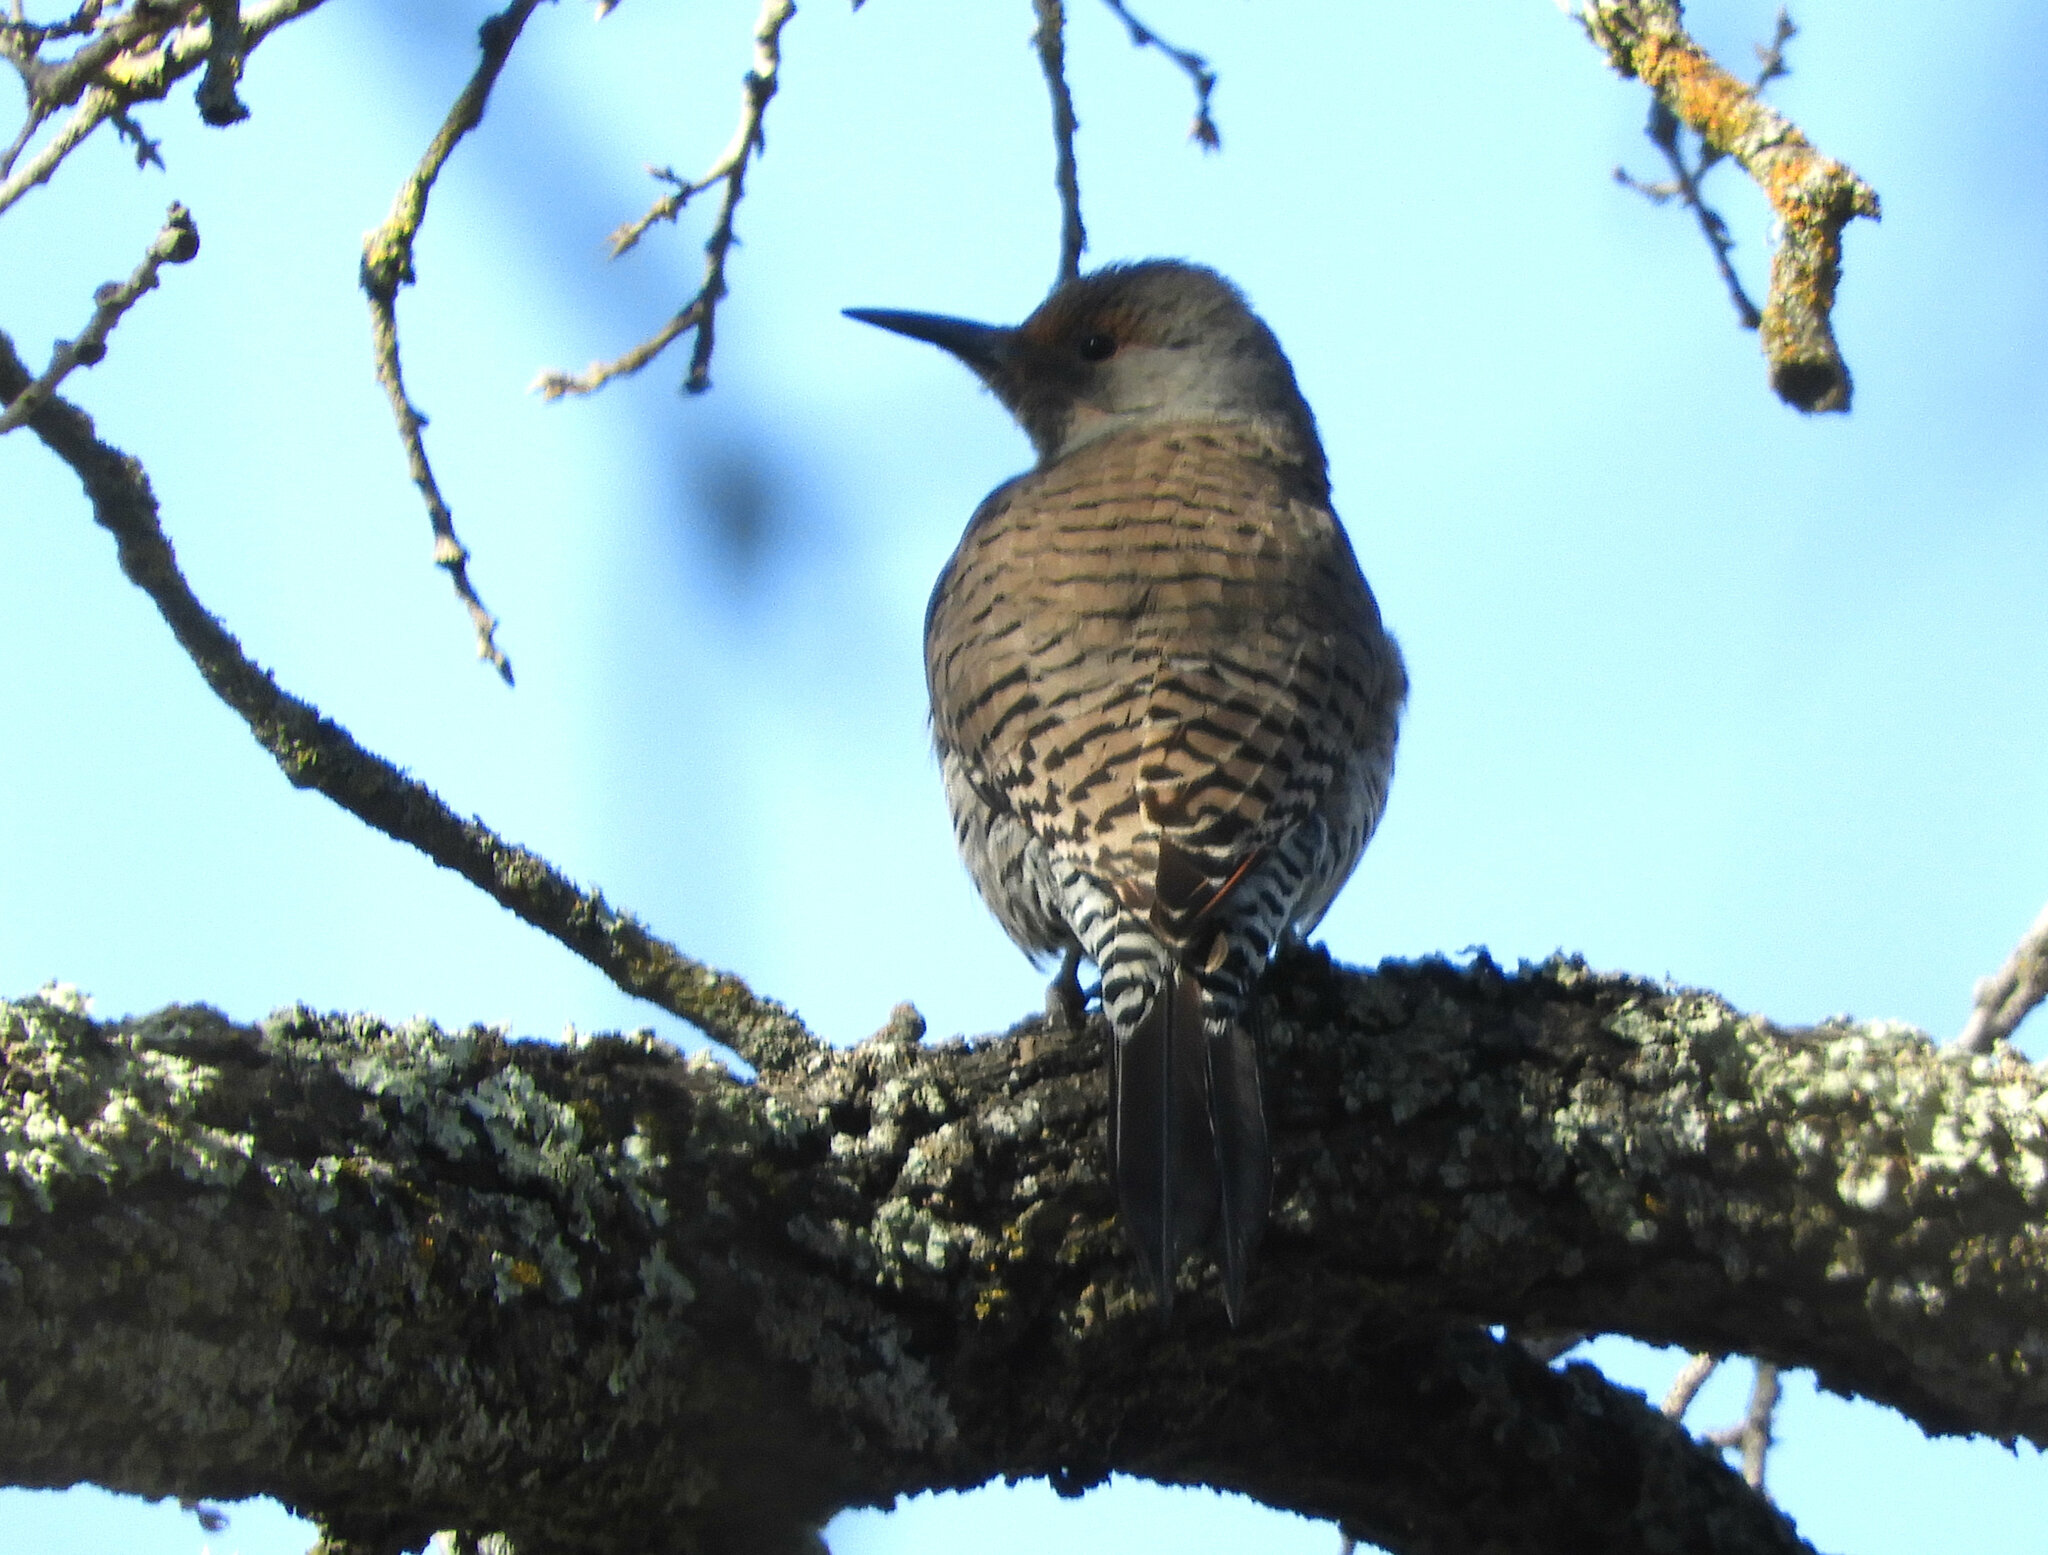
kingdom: Animalia
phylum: Chordata
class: Aves
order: Piciformes
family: Picidae
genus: Colaptes
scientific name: Colaptes auratus
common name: Northern flicker
